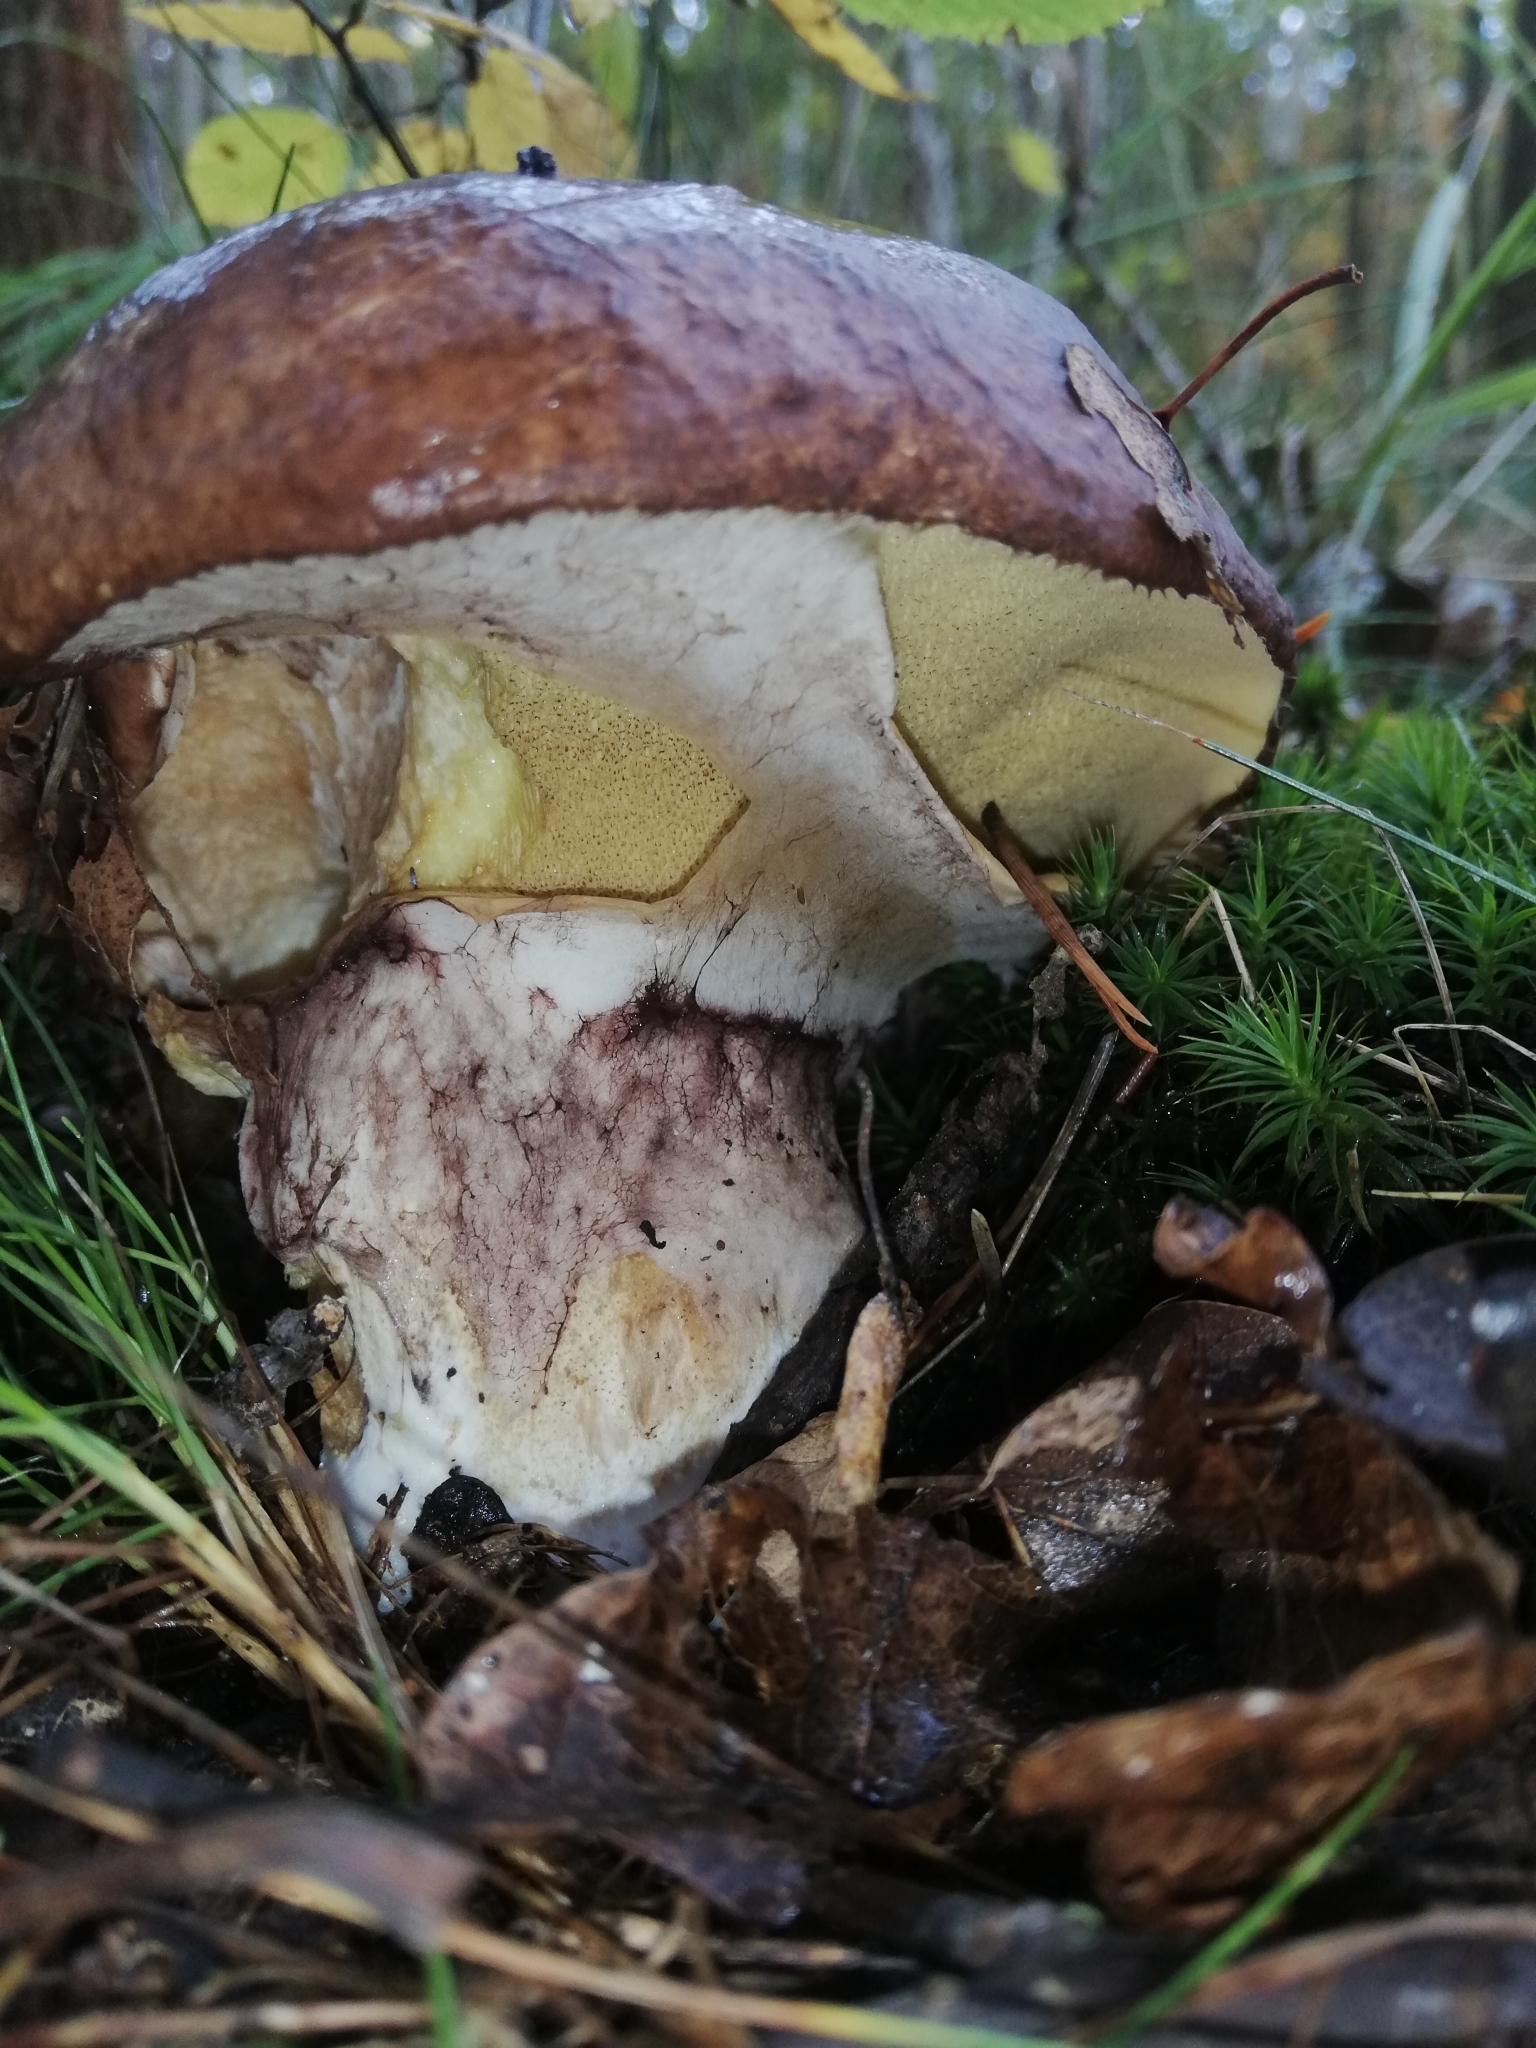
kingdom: Fungi
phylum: Basidiomycota
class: Agaricomycetes
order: Boletales
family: Suillaceae
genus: Suillus
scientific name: Suillus luteus
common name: Slippery jack
